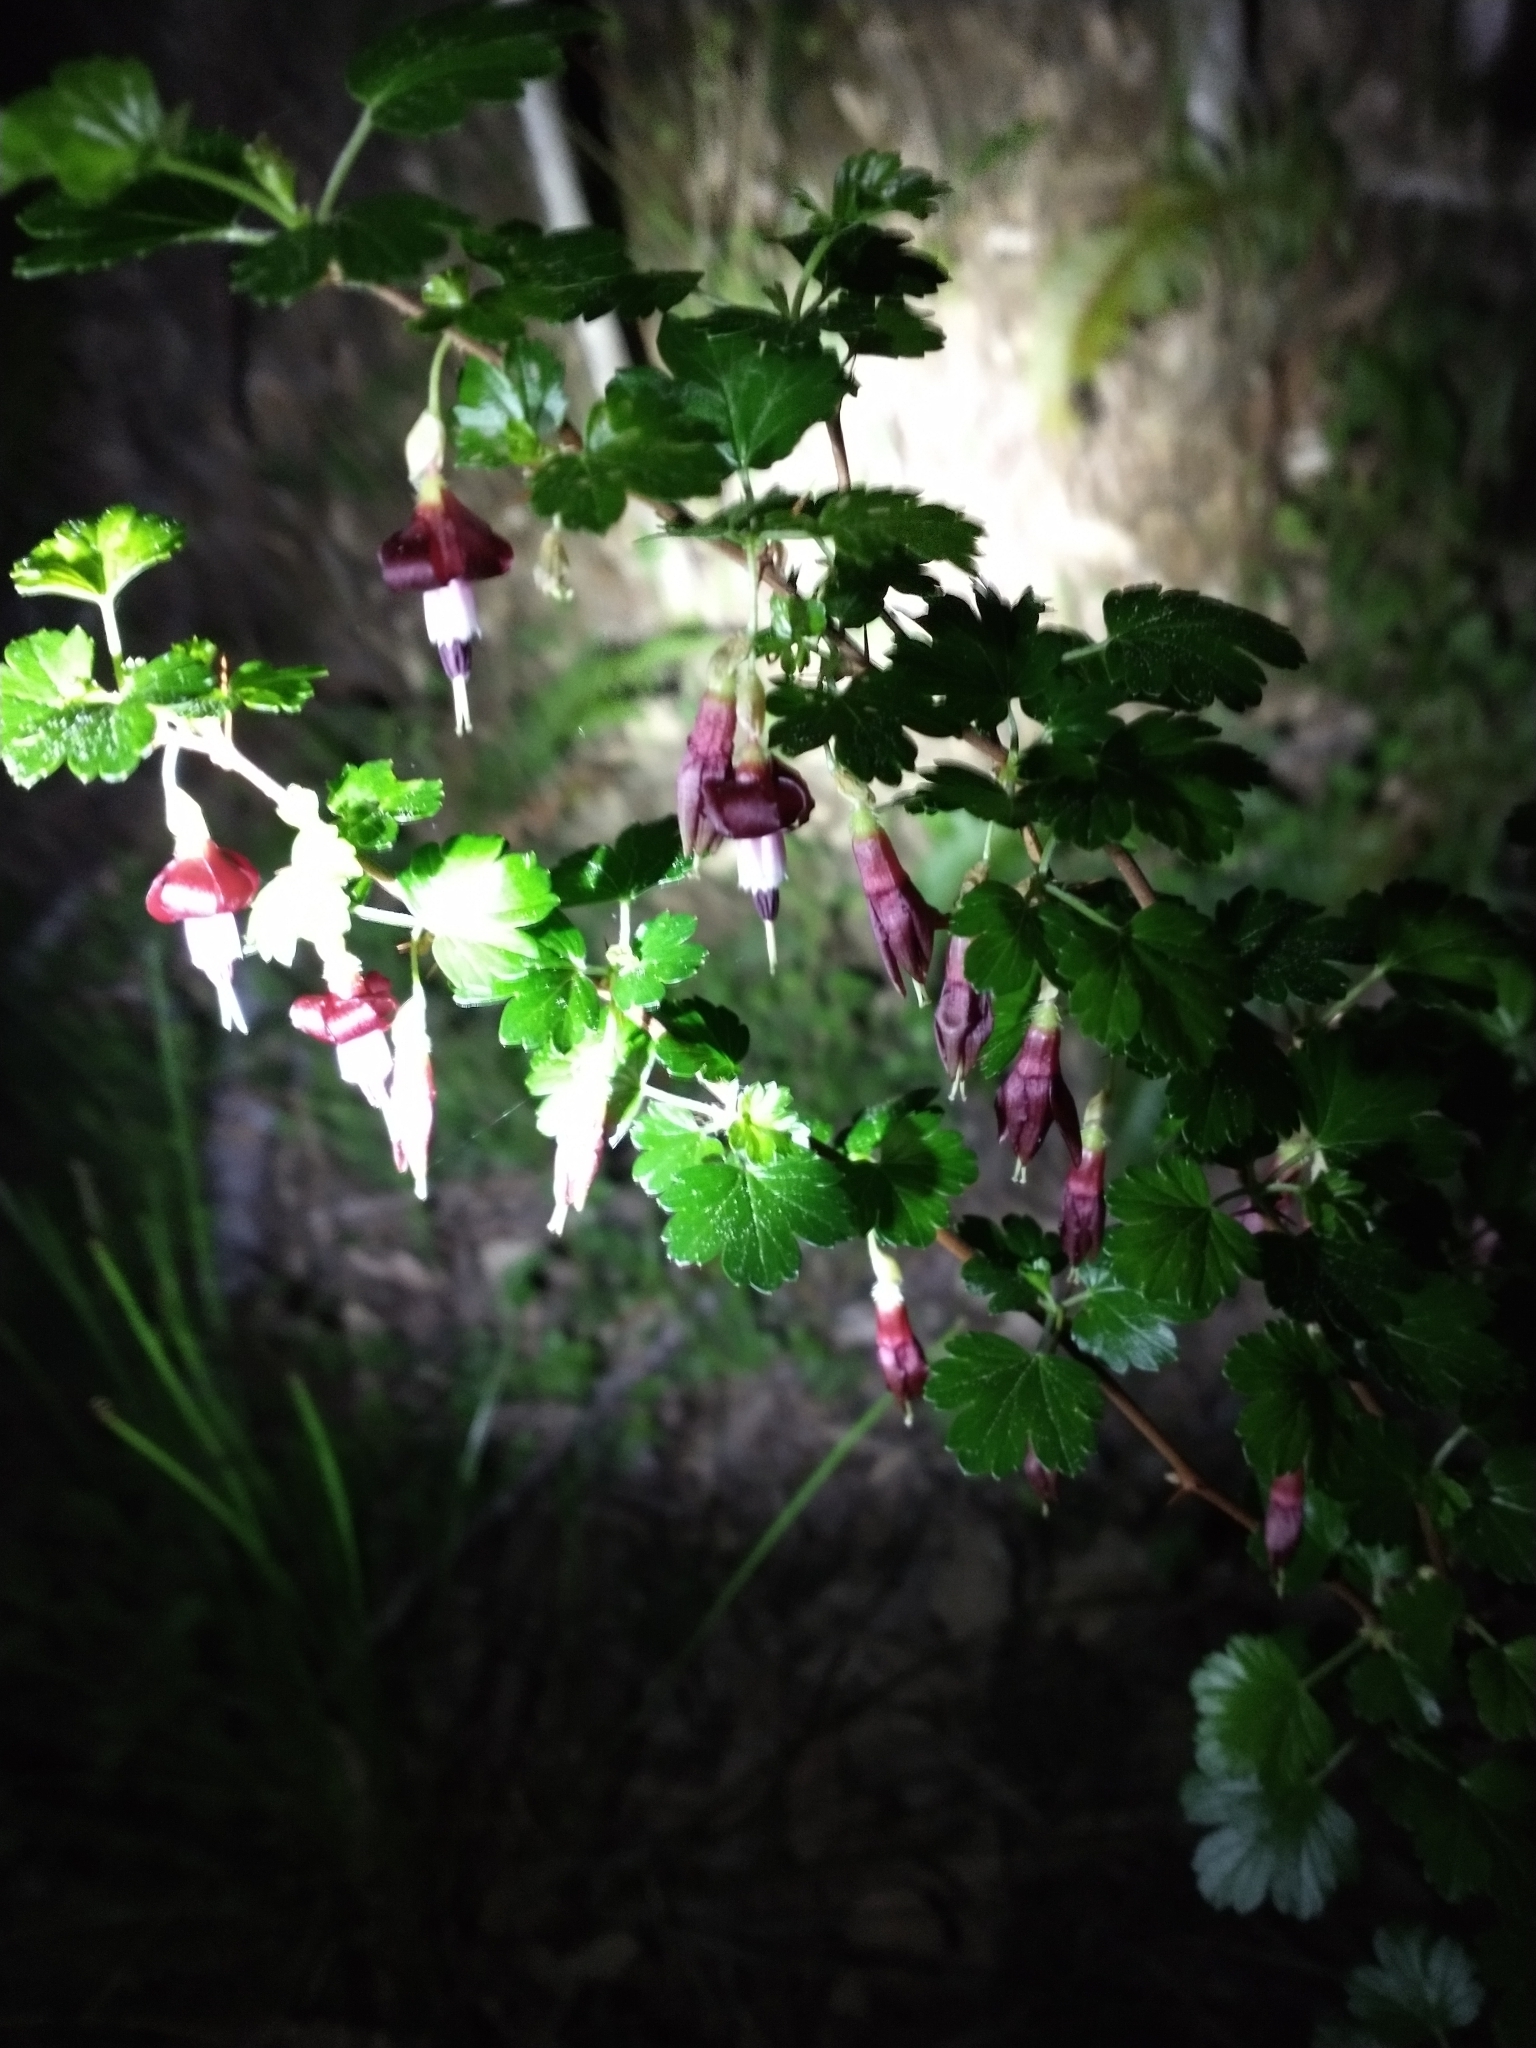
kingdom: Plantae
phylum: Tracheophyta
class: Magnoliopsida
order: Saxifragales
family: Grossulariaceae
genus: Ribes
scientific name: Ribes roezlii
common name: Sierra gooseberry
